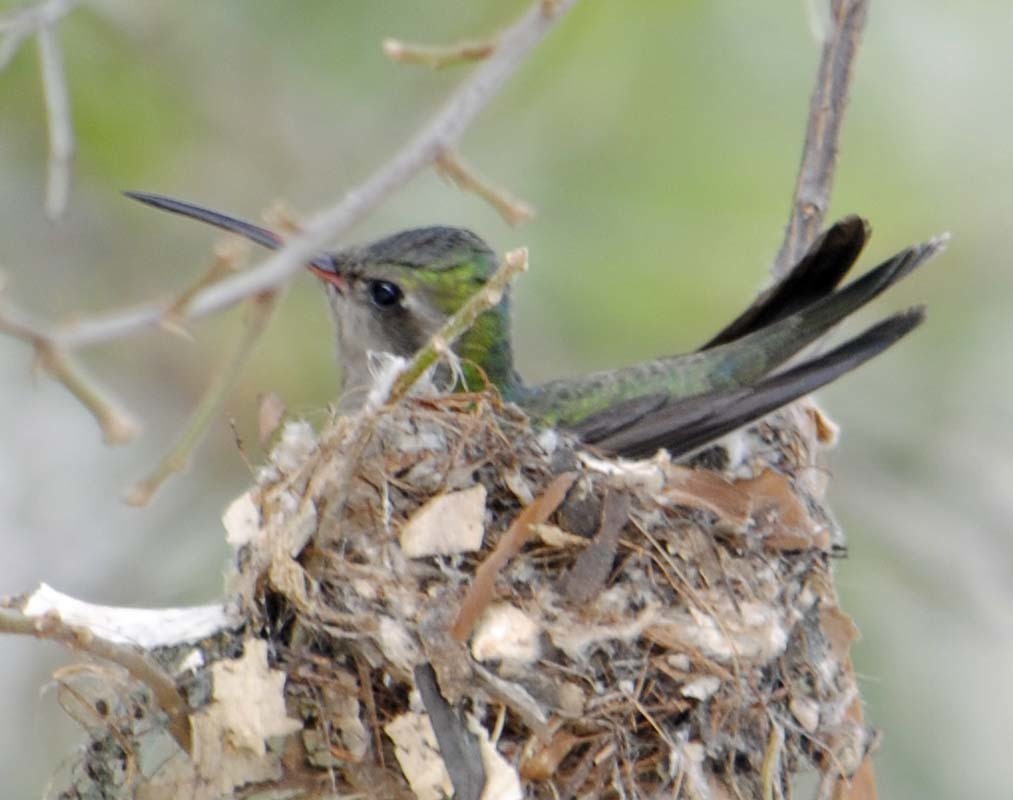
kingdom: Animalia
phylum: Chordata
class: Aves
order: Apodiformes
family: Trochilidae
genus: Cynanthus
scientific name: Cynanthus latirostris
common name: Broad-billed hummingbird
